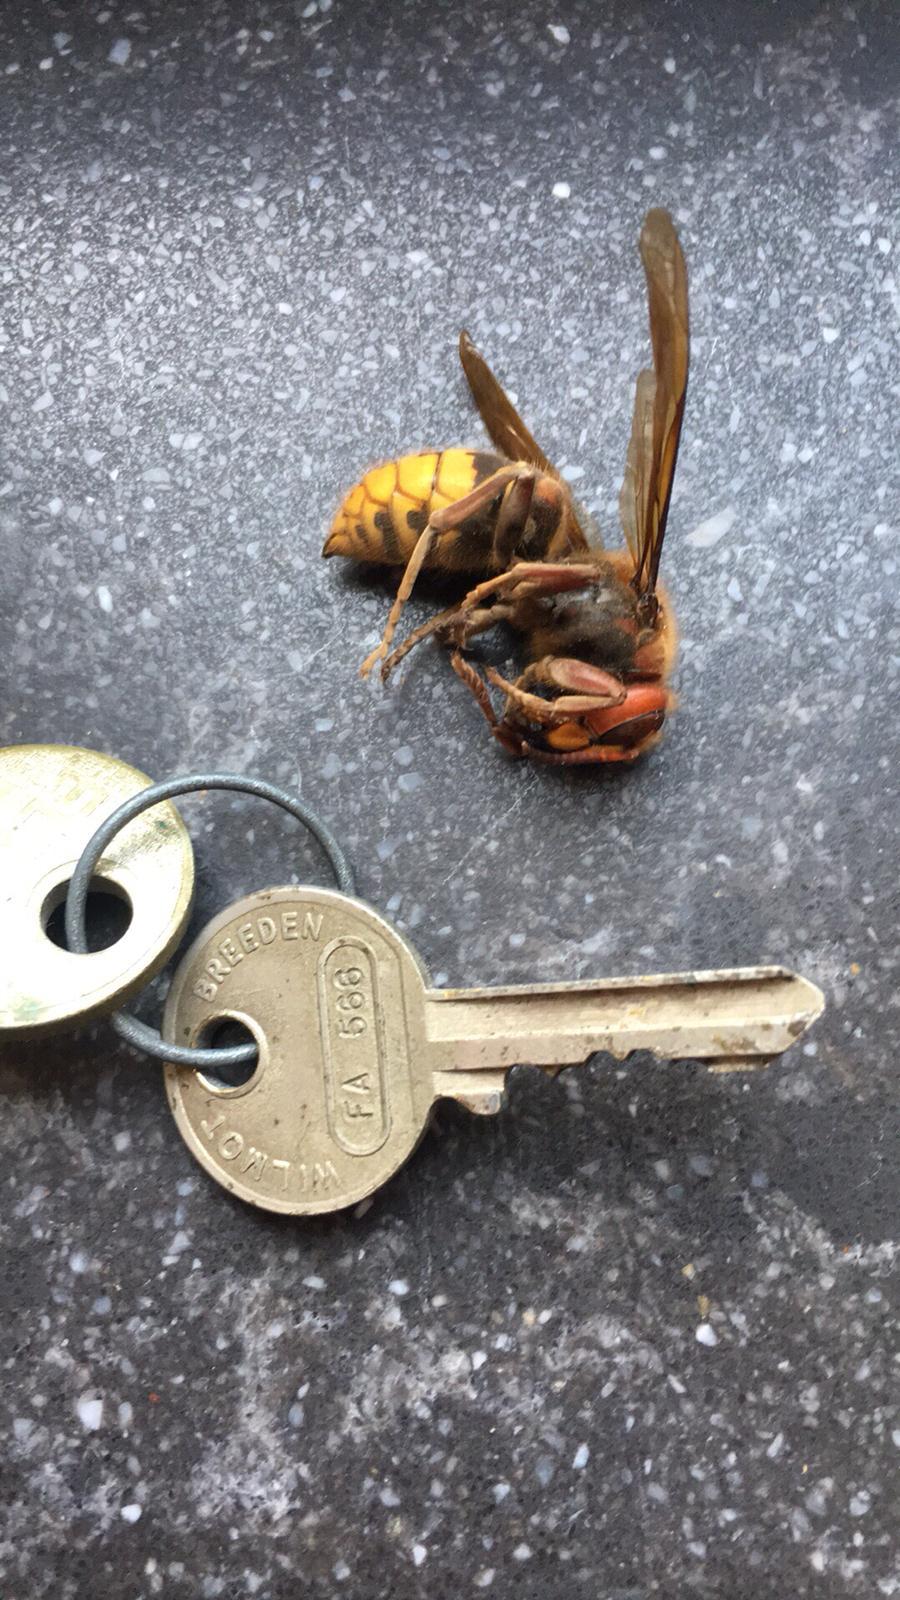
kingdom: Animalia
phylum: Arthropoda
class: Insecta
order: Hymenoptera
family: Vespidae
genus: Vespa
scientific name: Vespa crabro
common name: Hornet
